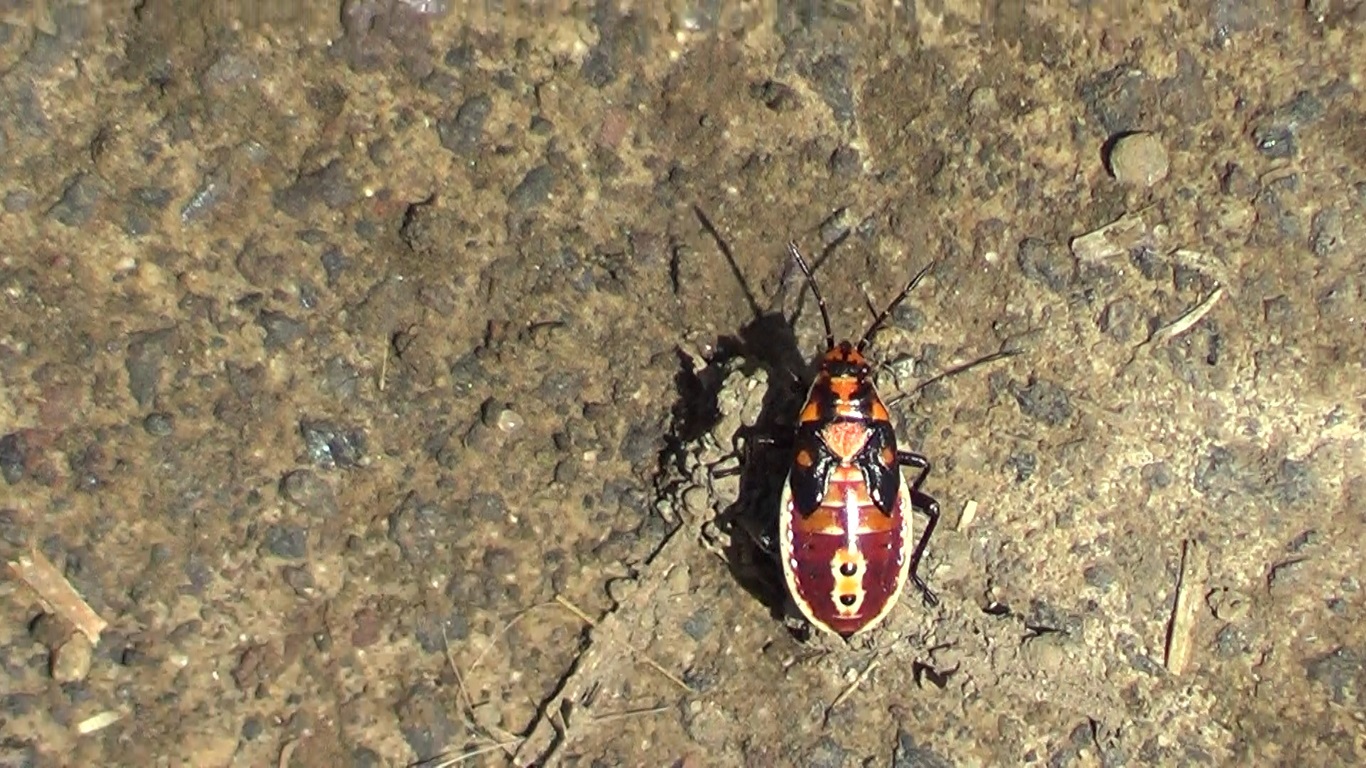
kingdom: Animalia
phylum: Arthropoda
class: Insecta
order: Hemiptera
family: Lygaeidae
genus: Spilostethus
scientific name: Spilostethus pandurus
